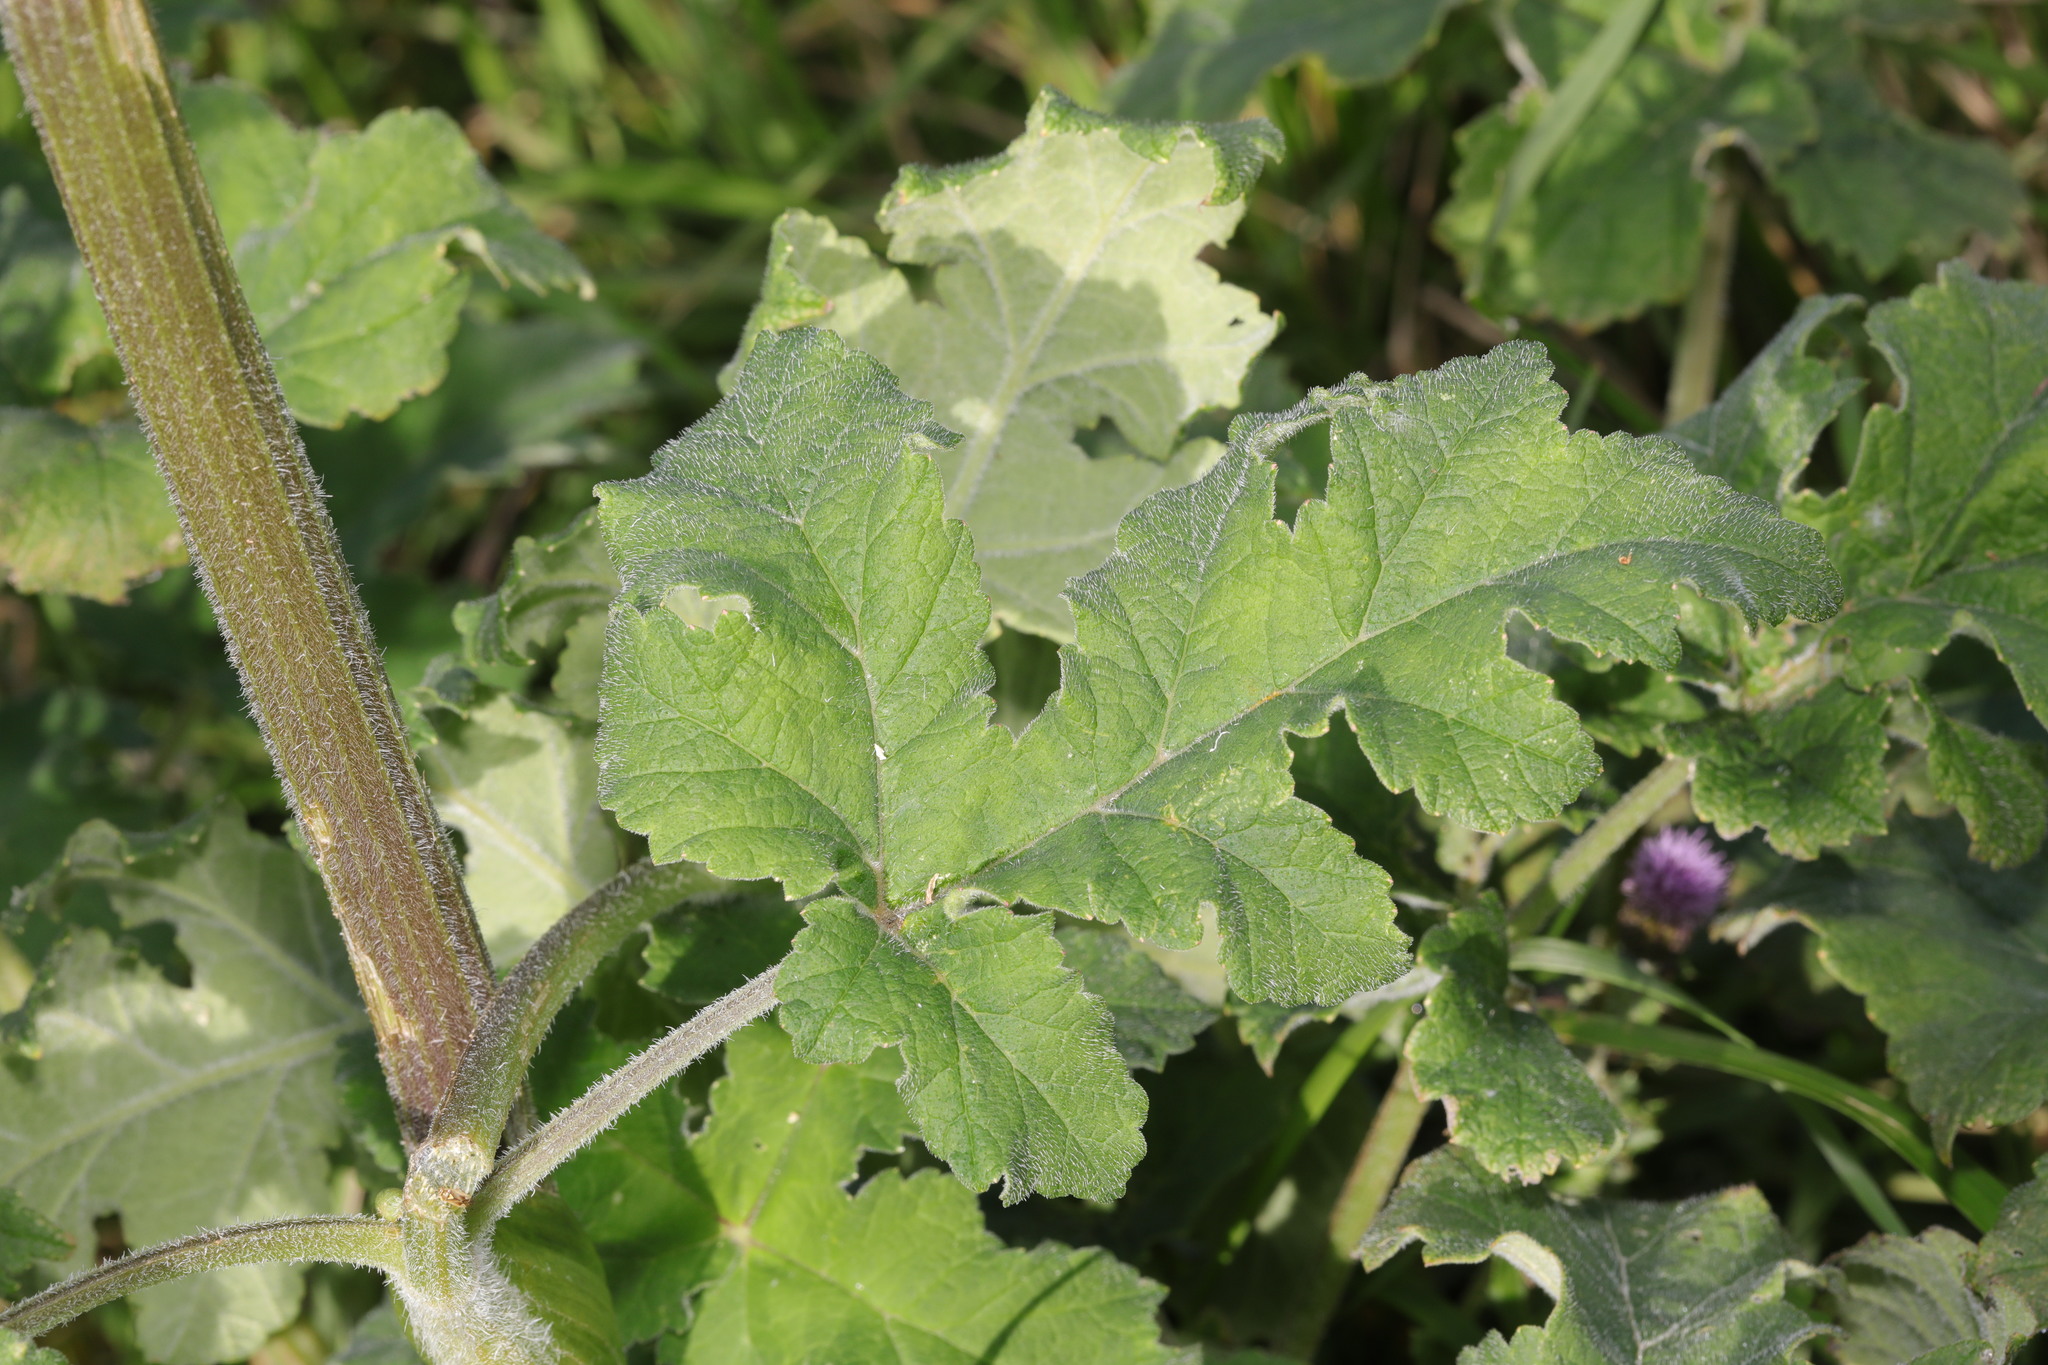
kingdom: Plantae
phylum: Tracheophyta
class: Magnoliopsida
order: Apiales
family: Apiaceae
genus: Heracleum
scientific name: Heracleum sphondylium
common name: Hogweed
